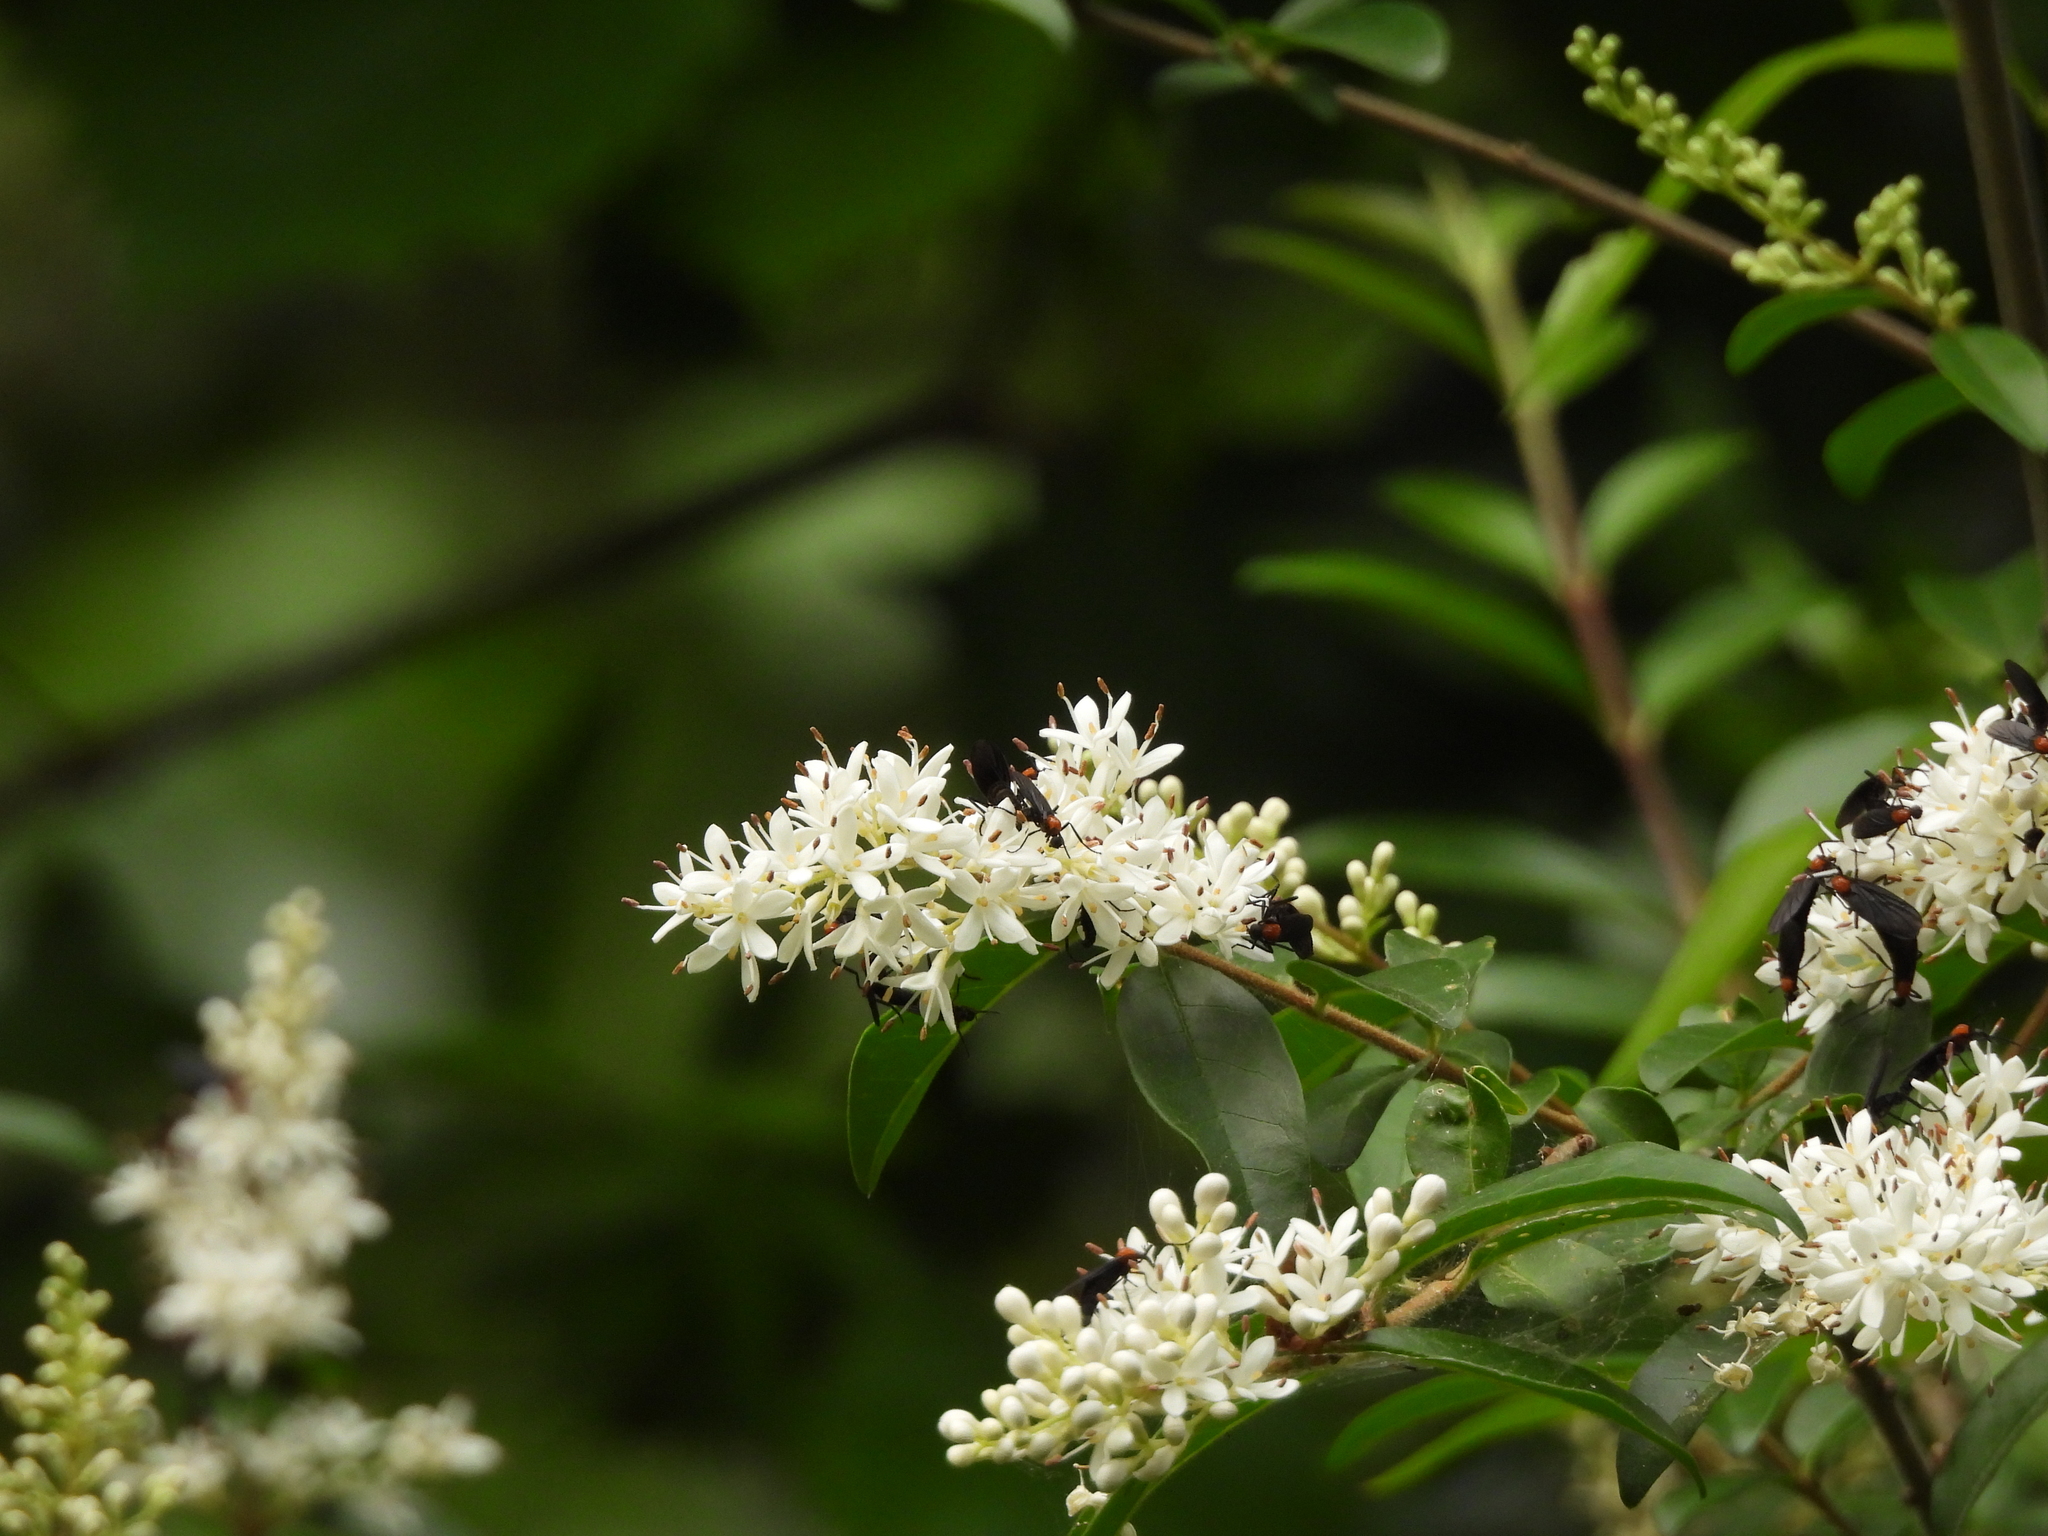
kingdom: Plantae
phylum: Tracheophyta
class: Magnoliopsida
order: Lamiales
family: Oleaceae
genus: Ligustrum
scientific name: Ligustrum sinense
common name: Chinese privet
